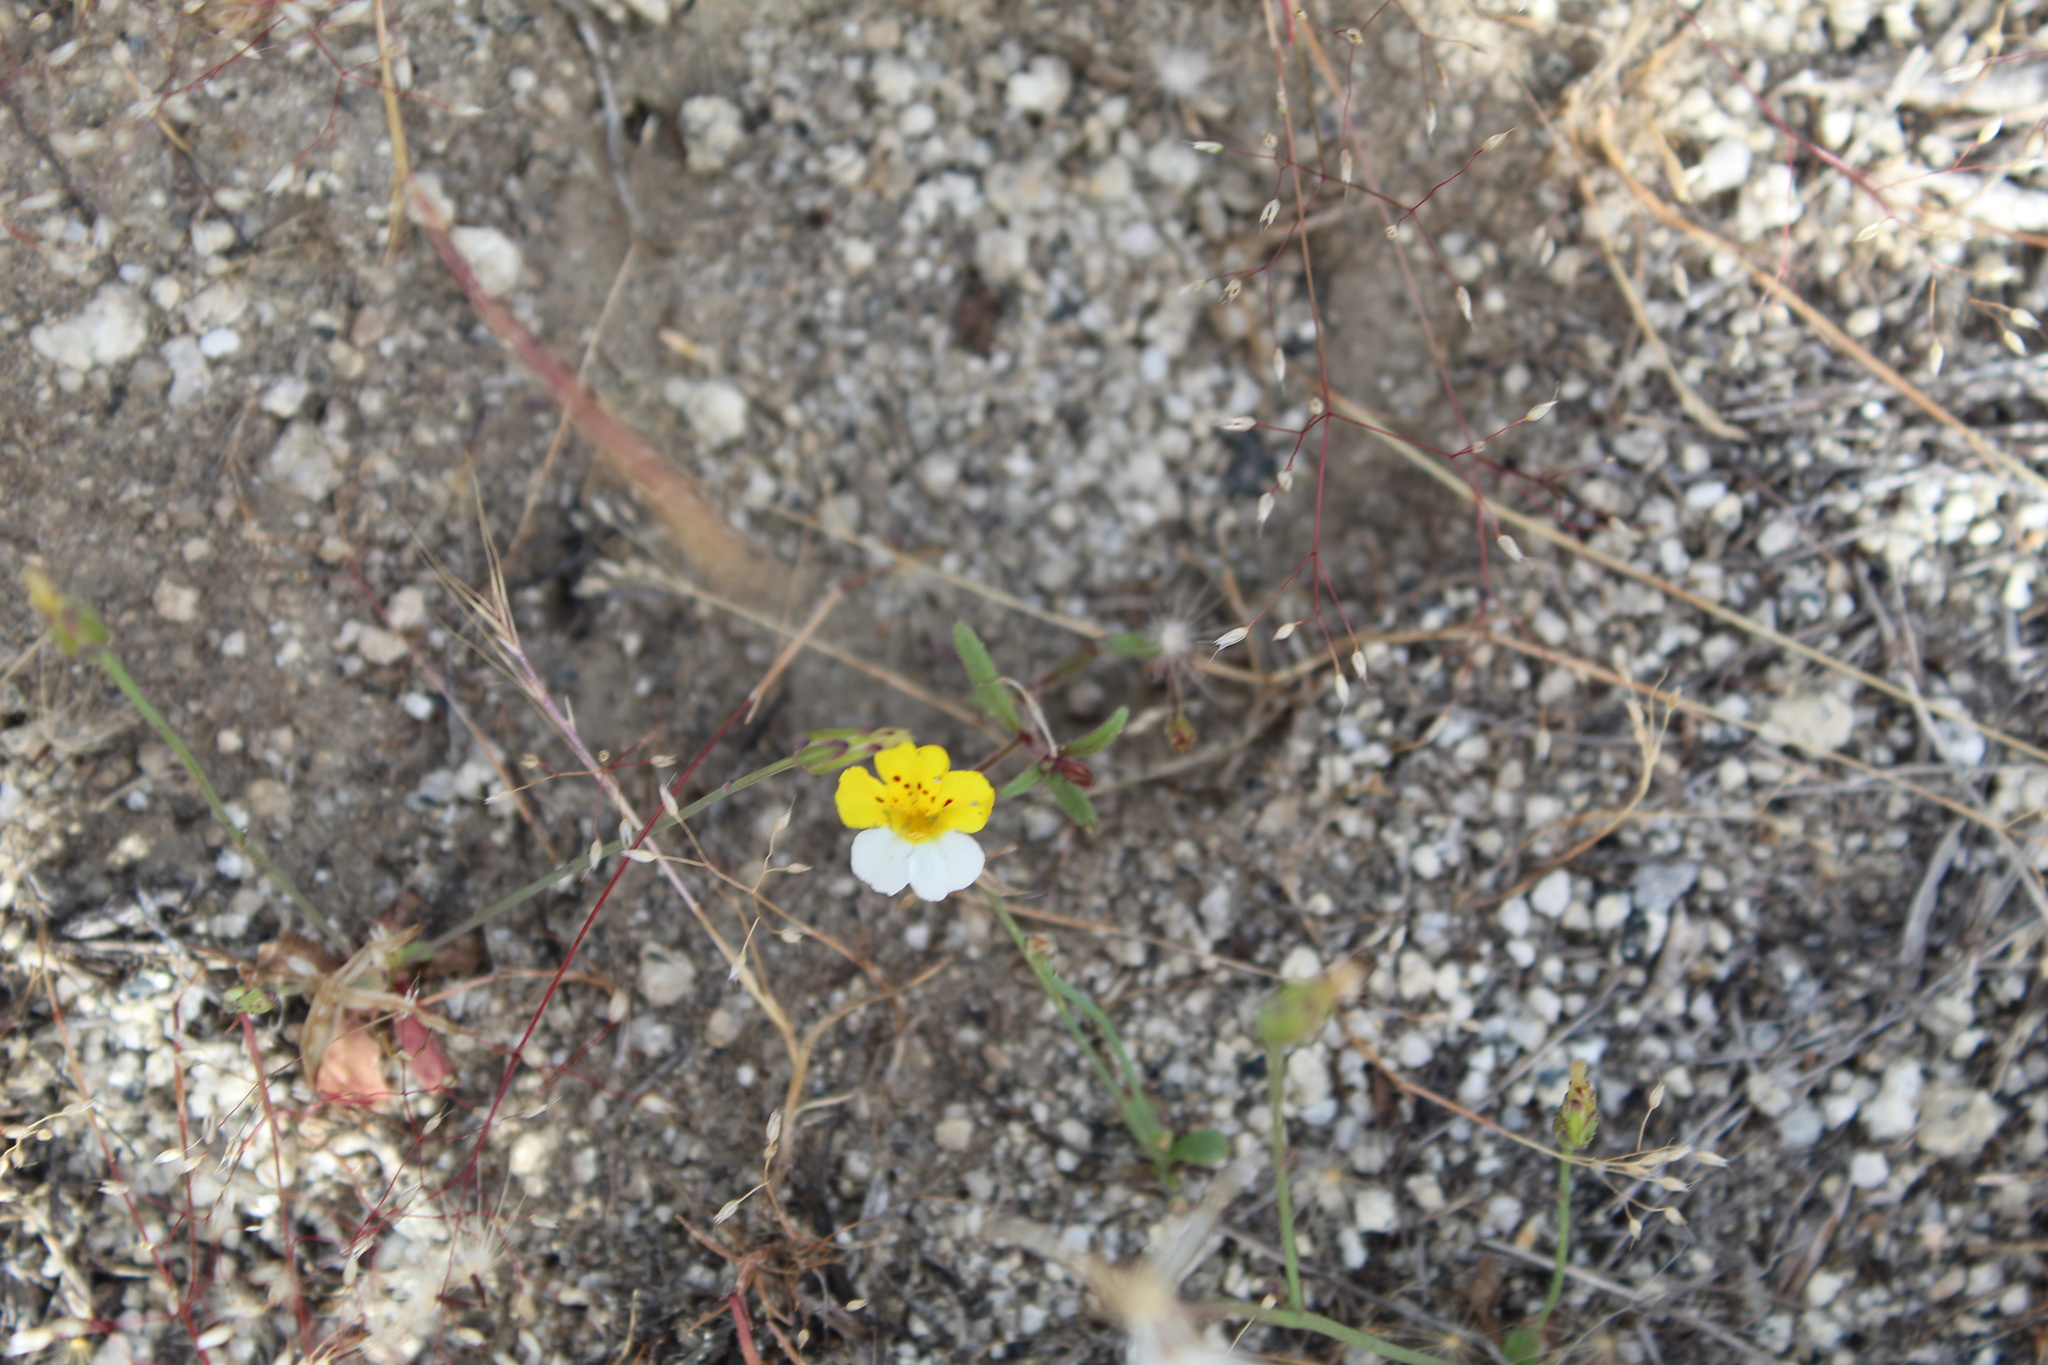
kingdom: Plantae
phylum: Tracheophyta
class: Magnoliopsida
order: Lamiales
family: Phrymaceae
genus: Erythranthe
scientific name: Erythranthe bicolor
